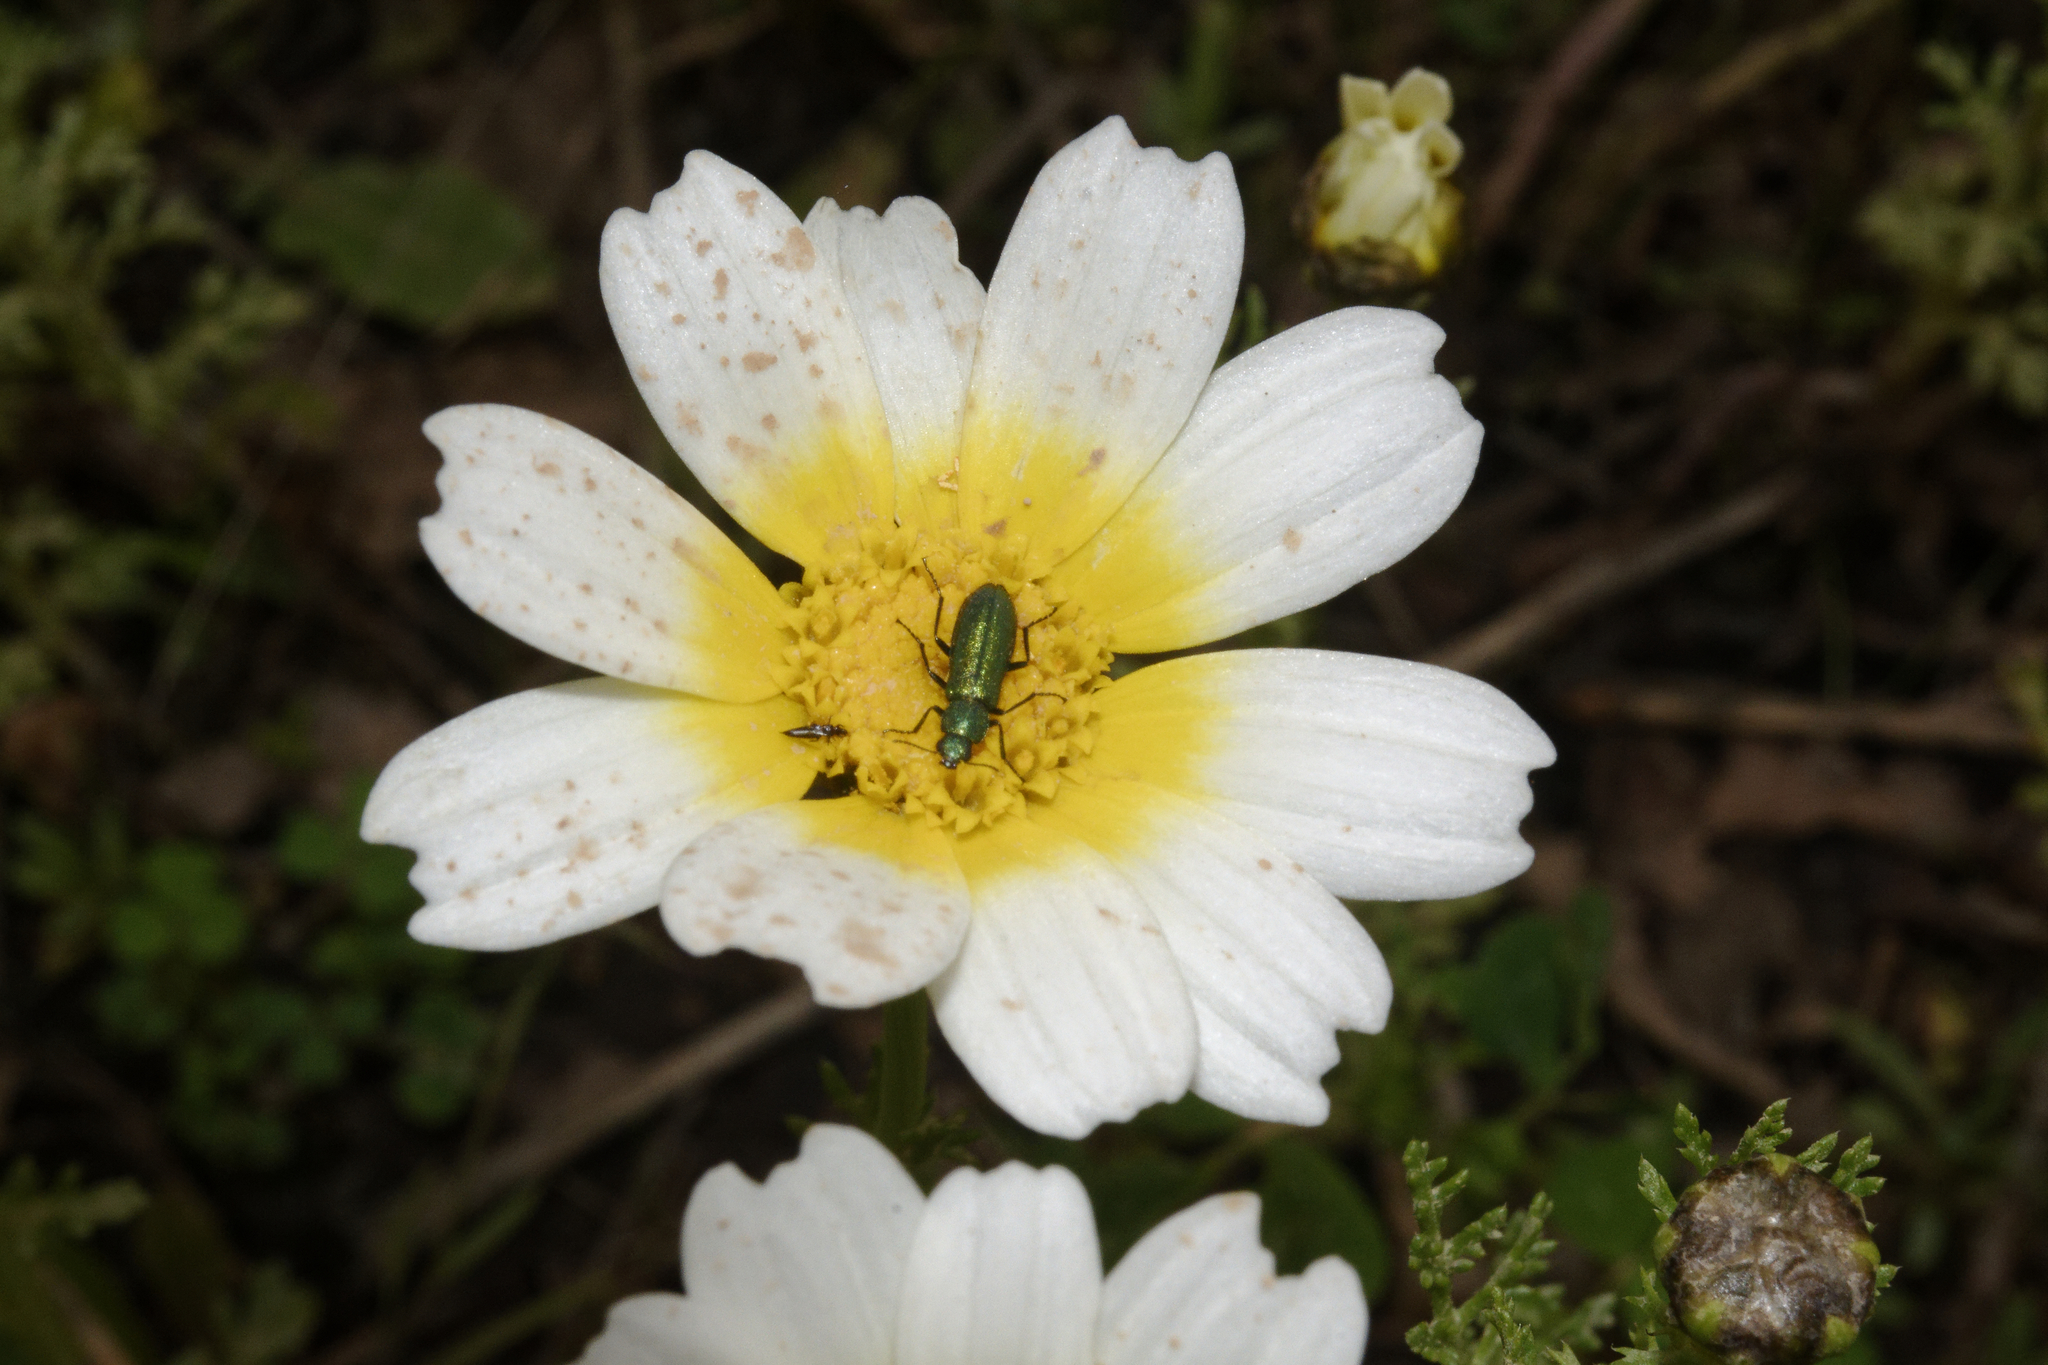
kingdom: Animalia
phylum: Arthropoda
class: Insecta
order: Coleoptera
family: Dasytidae
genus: Psilothrix
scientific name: Psilothrix viridicoerulea
